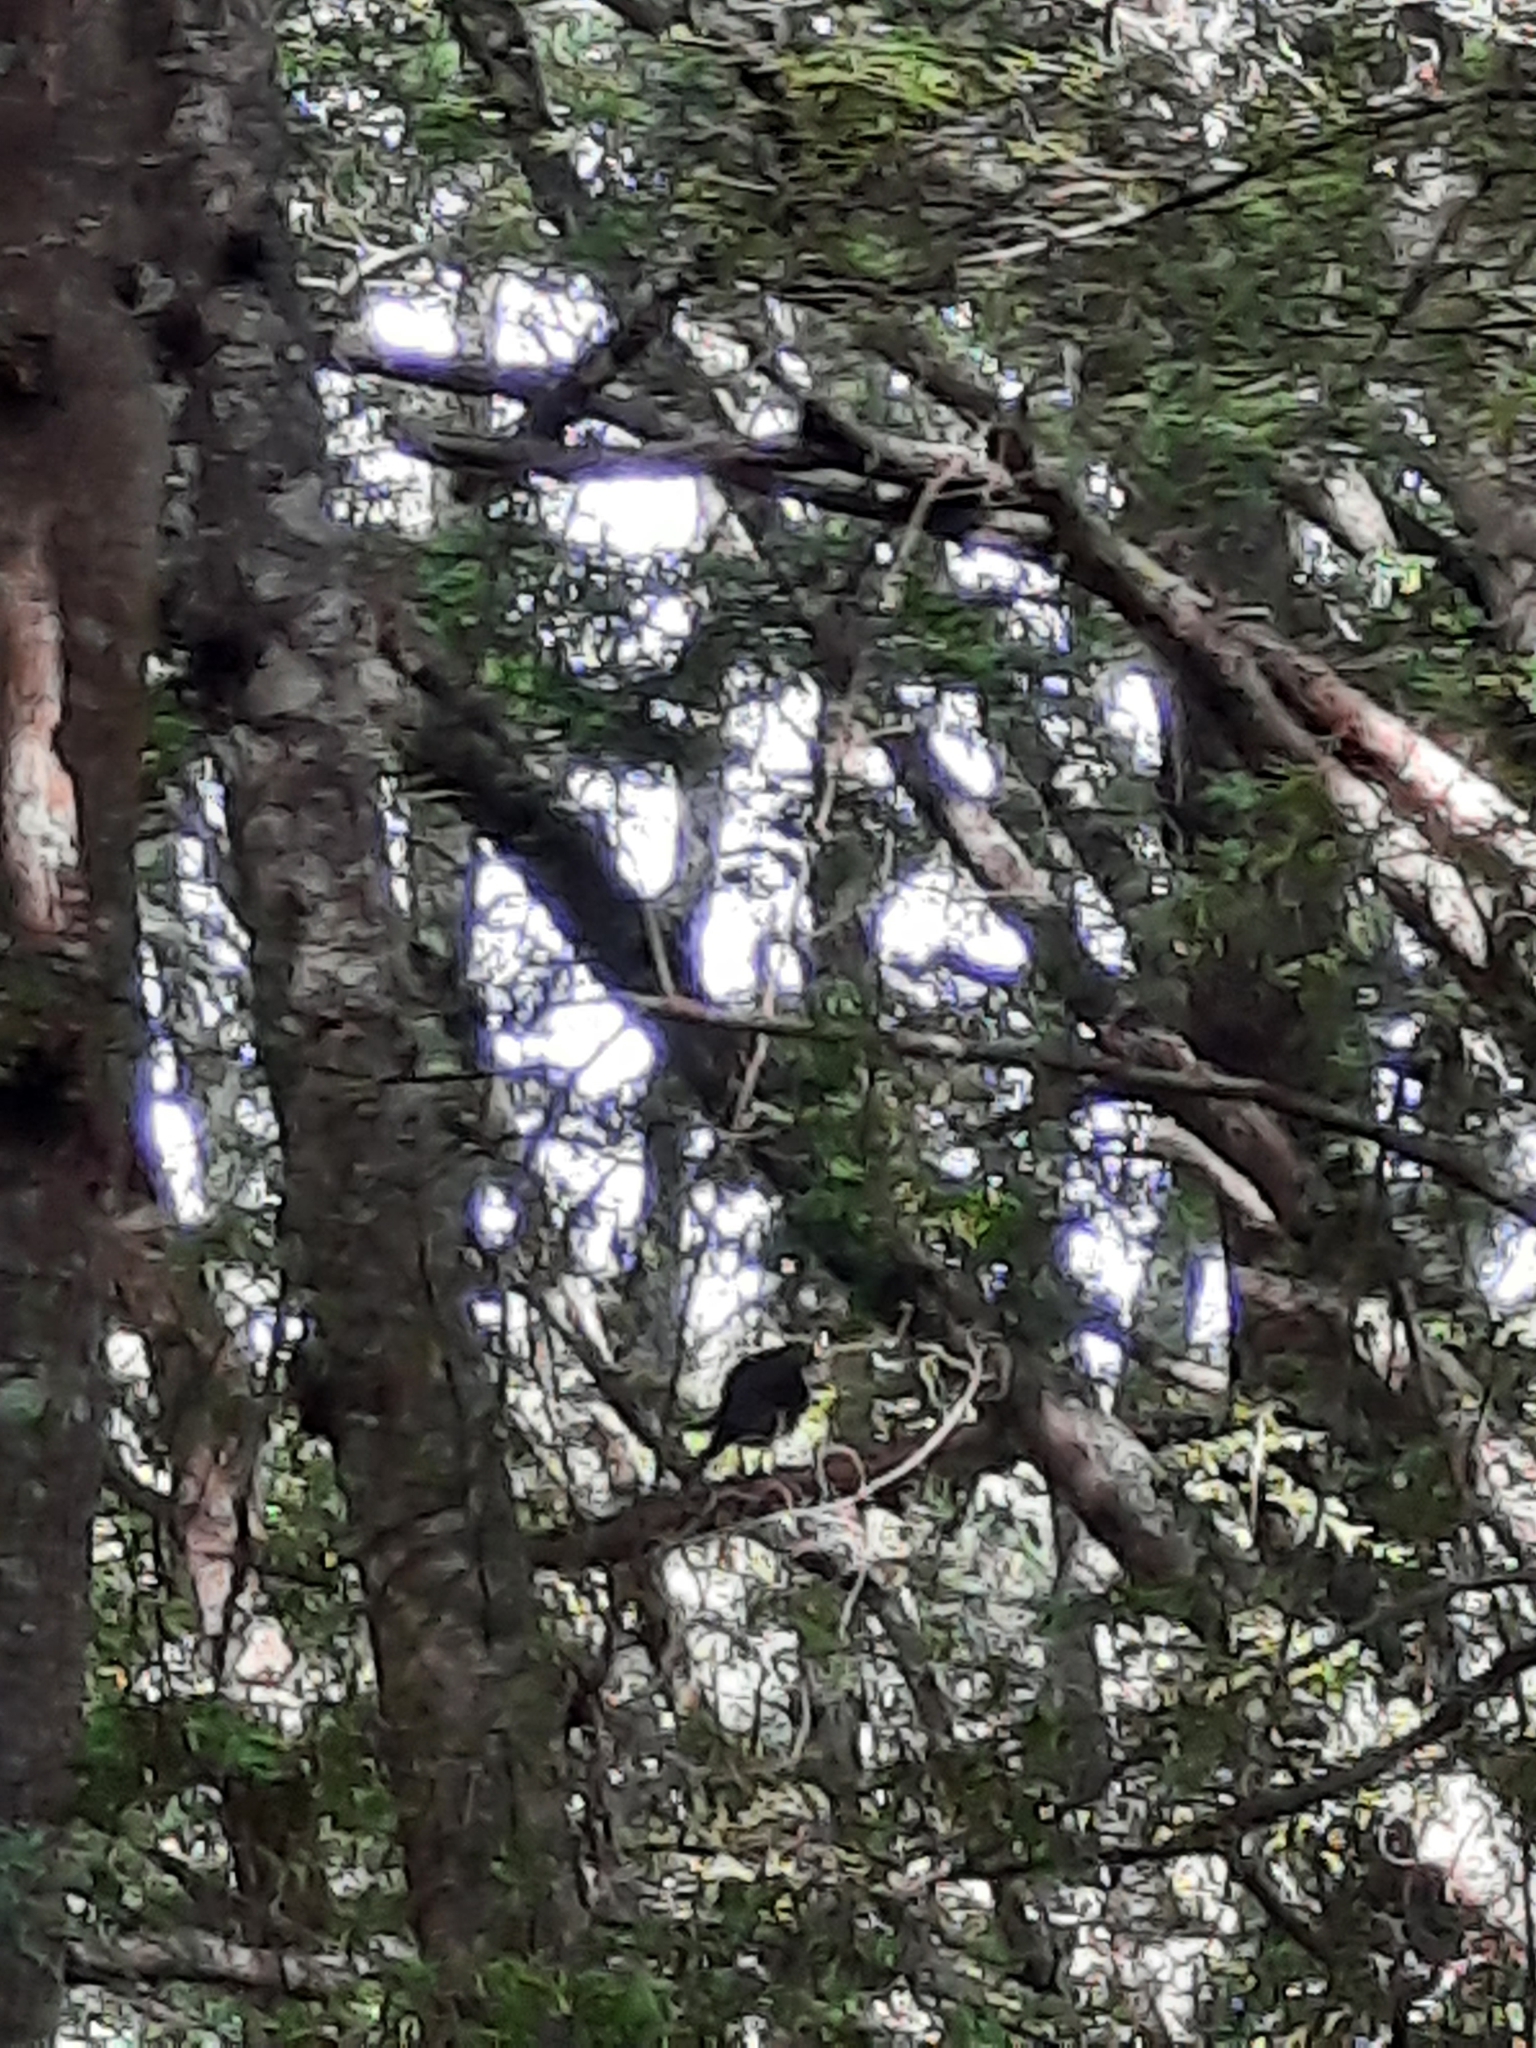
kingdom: Animalia
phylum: Chordata
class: Aves
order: Falconiformes
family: Falconidae
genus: Falco
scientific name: Falco novaeseelandiae
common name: New zealand falcon
